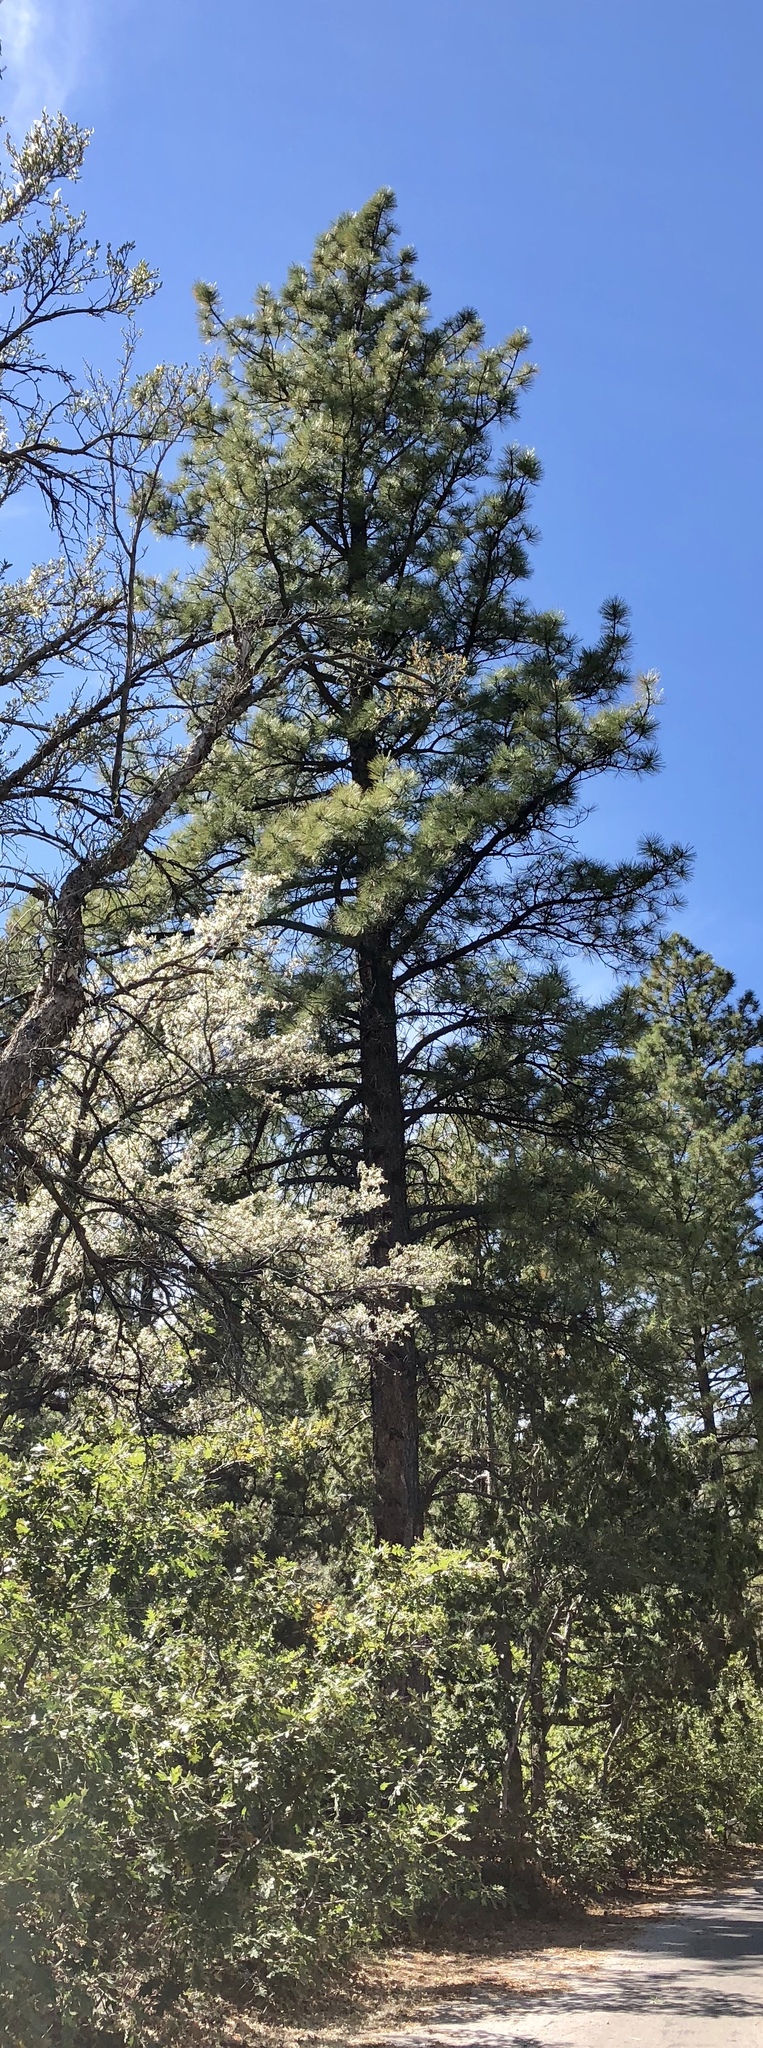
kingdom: Plantae
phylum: Tracheophyta
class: Pinopsida
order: Pinales
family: Pinaceae
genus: Pinus
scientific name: Pinus ponderosa
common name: Western yellow-pine
